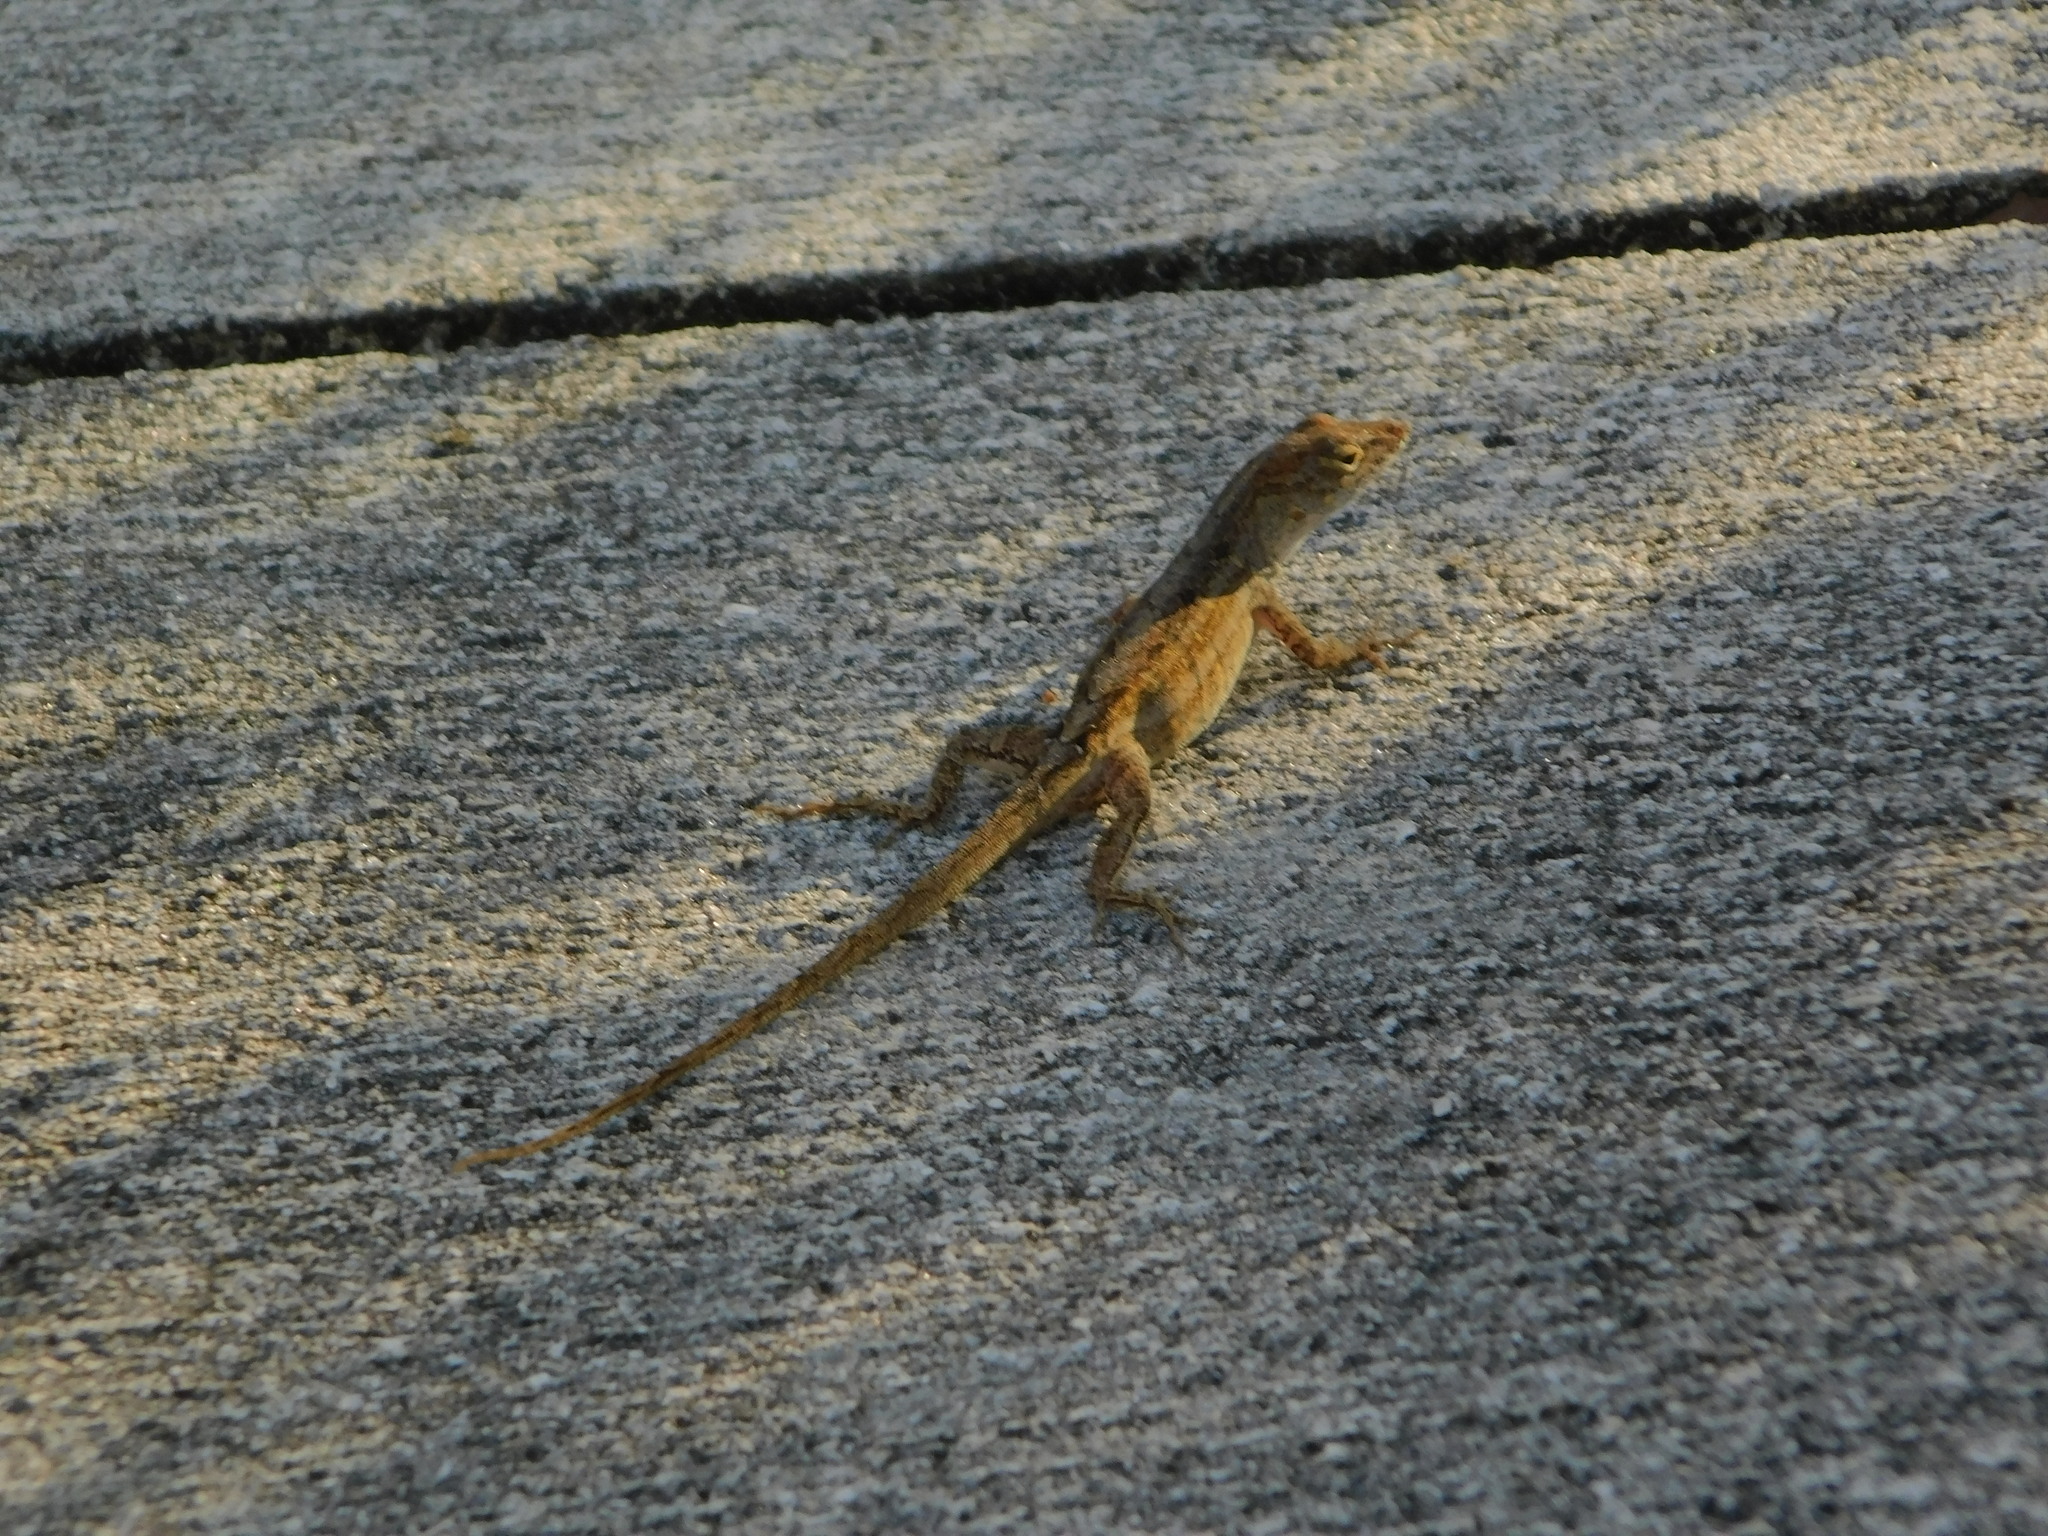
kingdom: Animalia
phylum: Chordata
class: Squamata
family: Dactyloidae
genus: Anolis
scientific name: Anolis sagrei
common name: Brown anole
